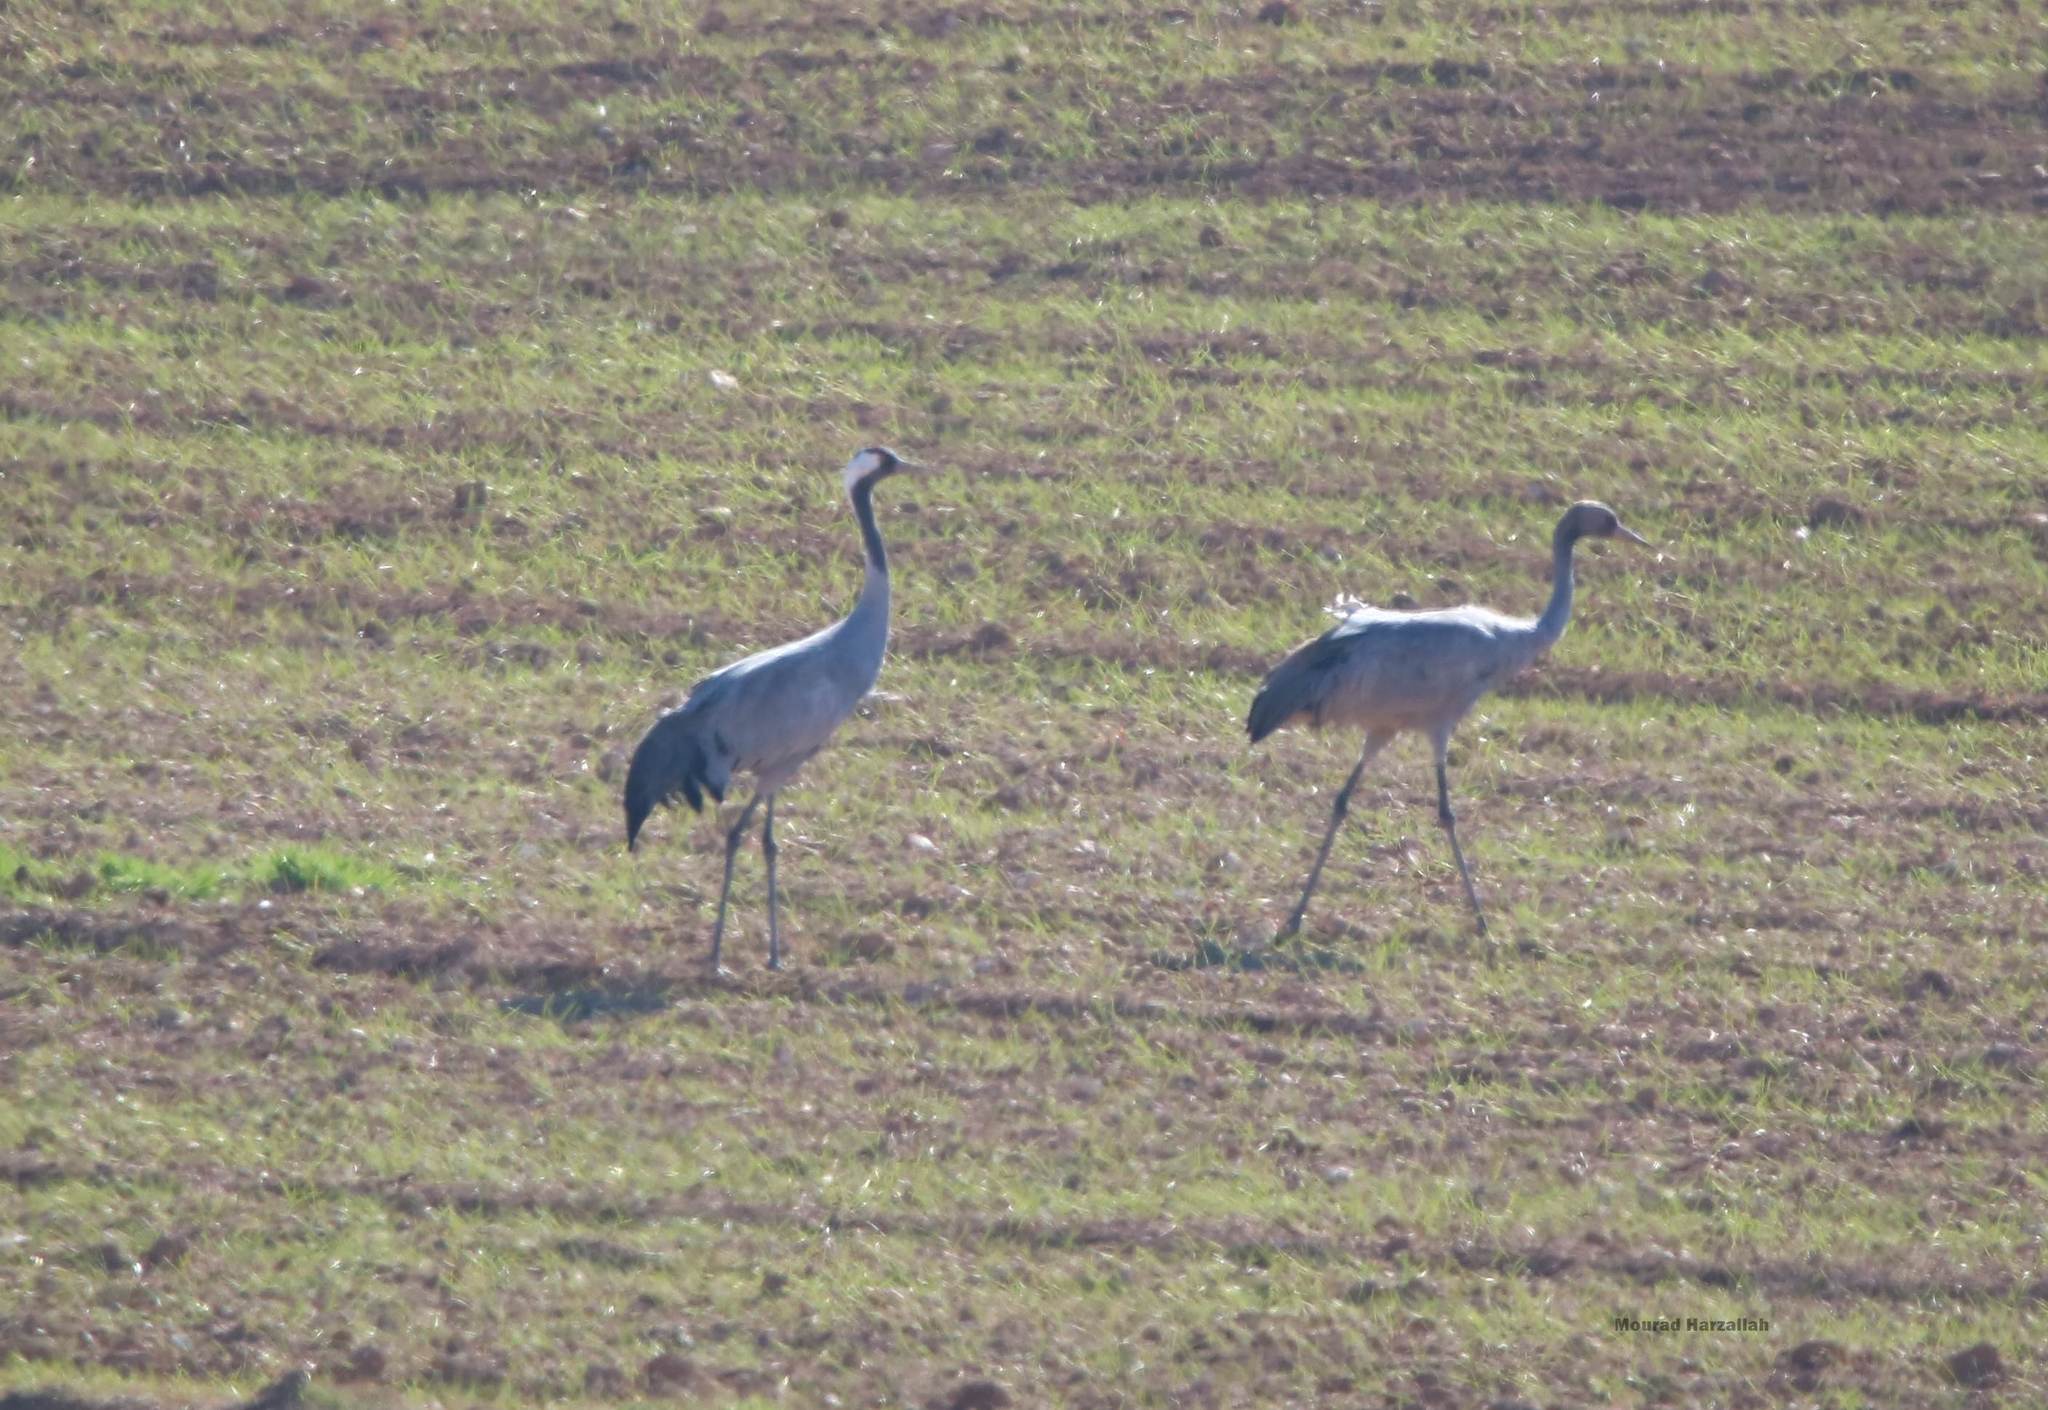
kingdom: Animalia
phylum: Chordata
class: Aves
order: Gruiformes
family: Gruidae
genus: Grus
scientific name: Grus grus
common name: Common crane
